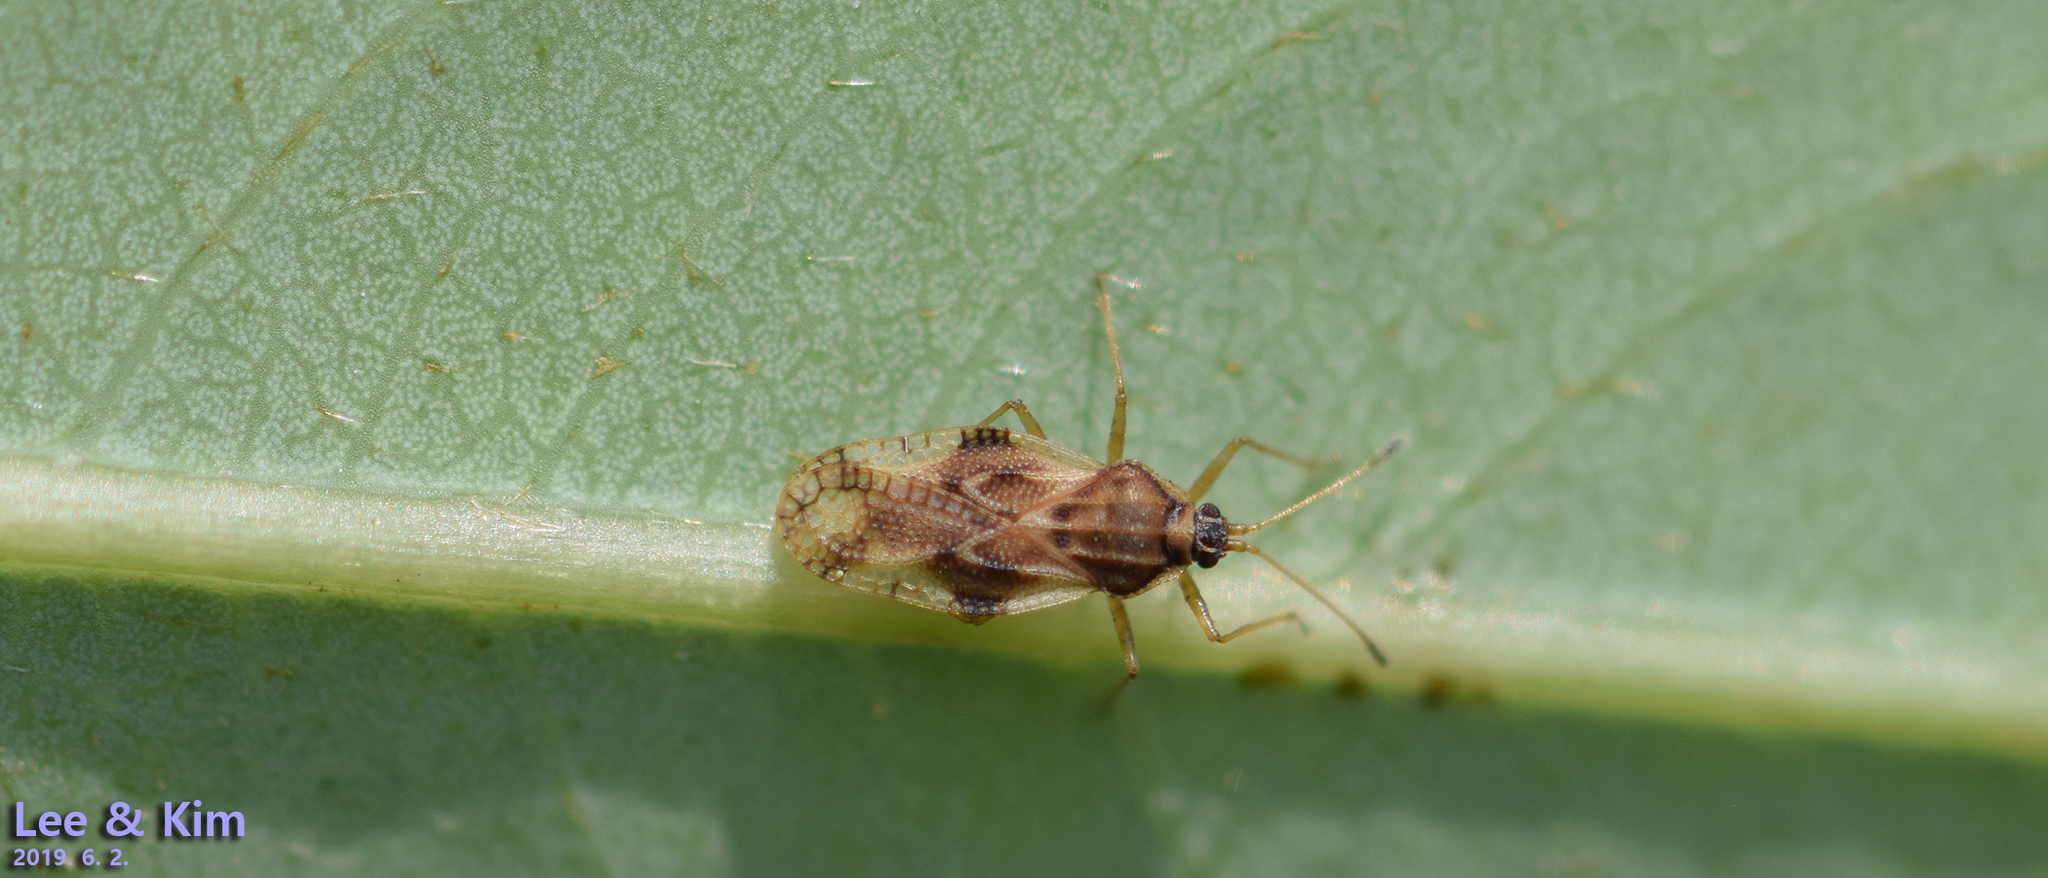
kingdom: Animalia
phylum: Arthropoda
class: Insecta
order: Hemiptera
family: Tingidae
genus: Ixia
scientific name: Ixia populi
